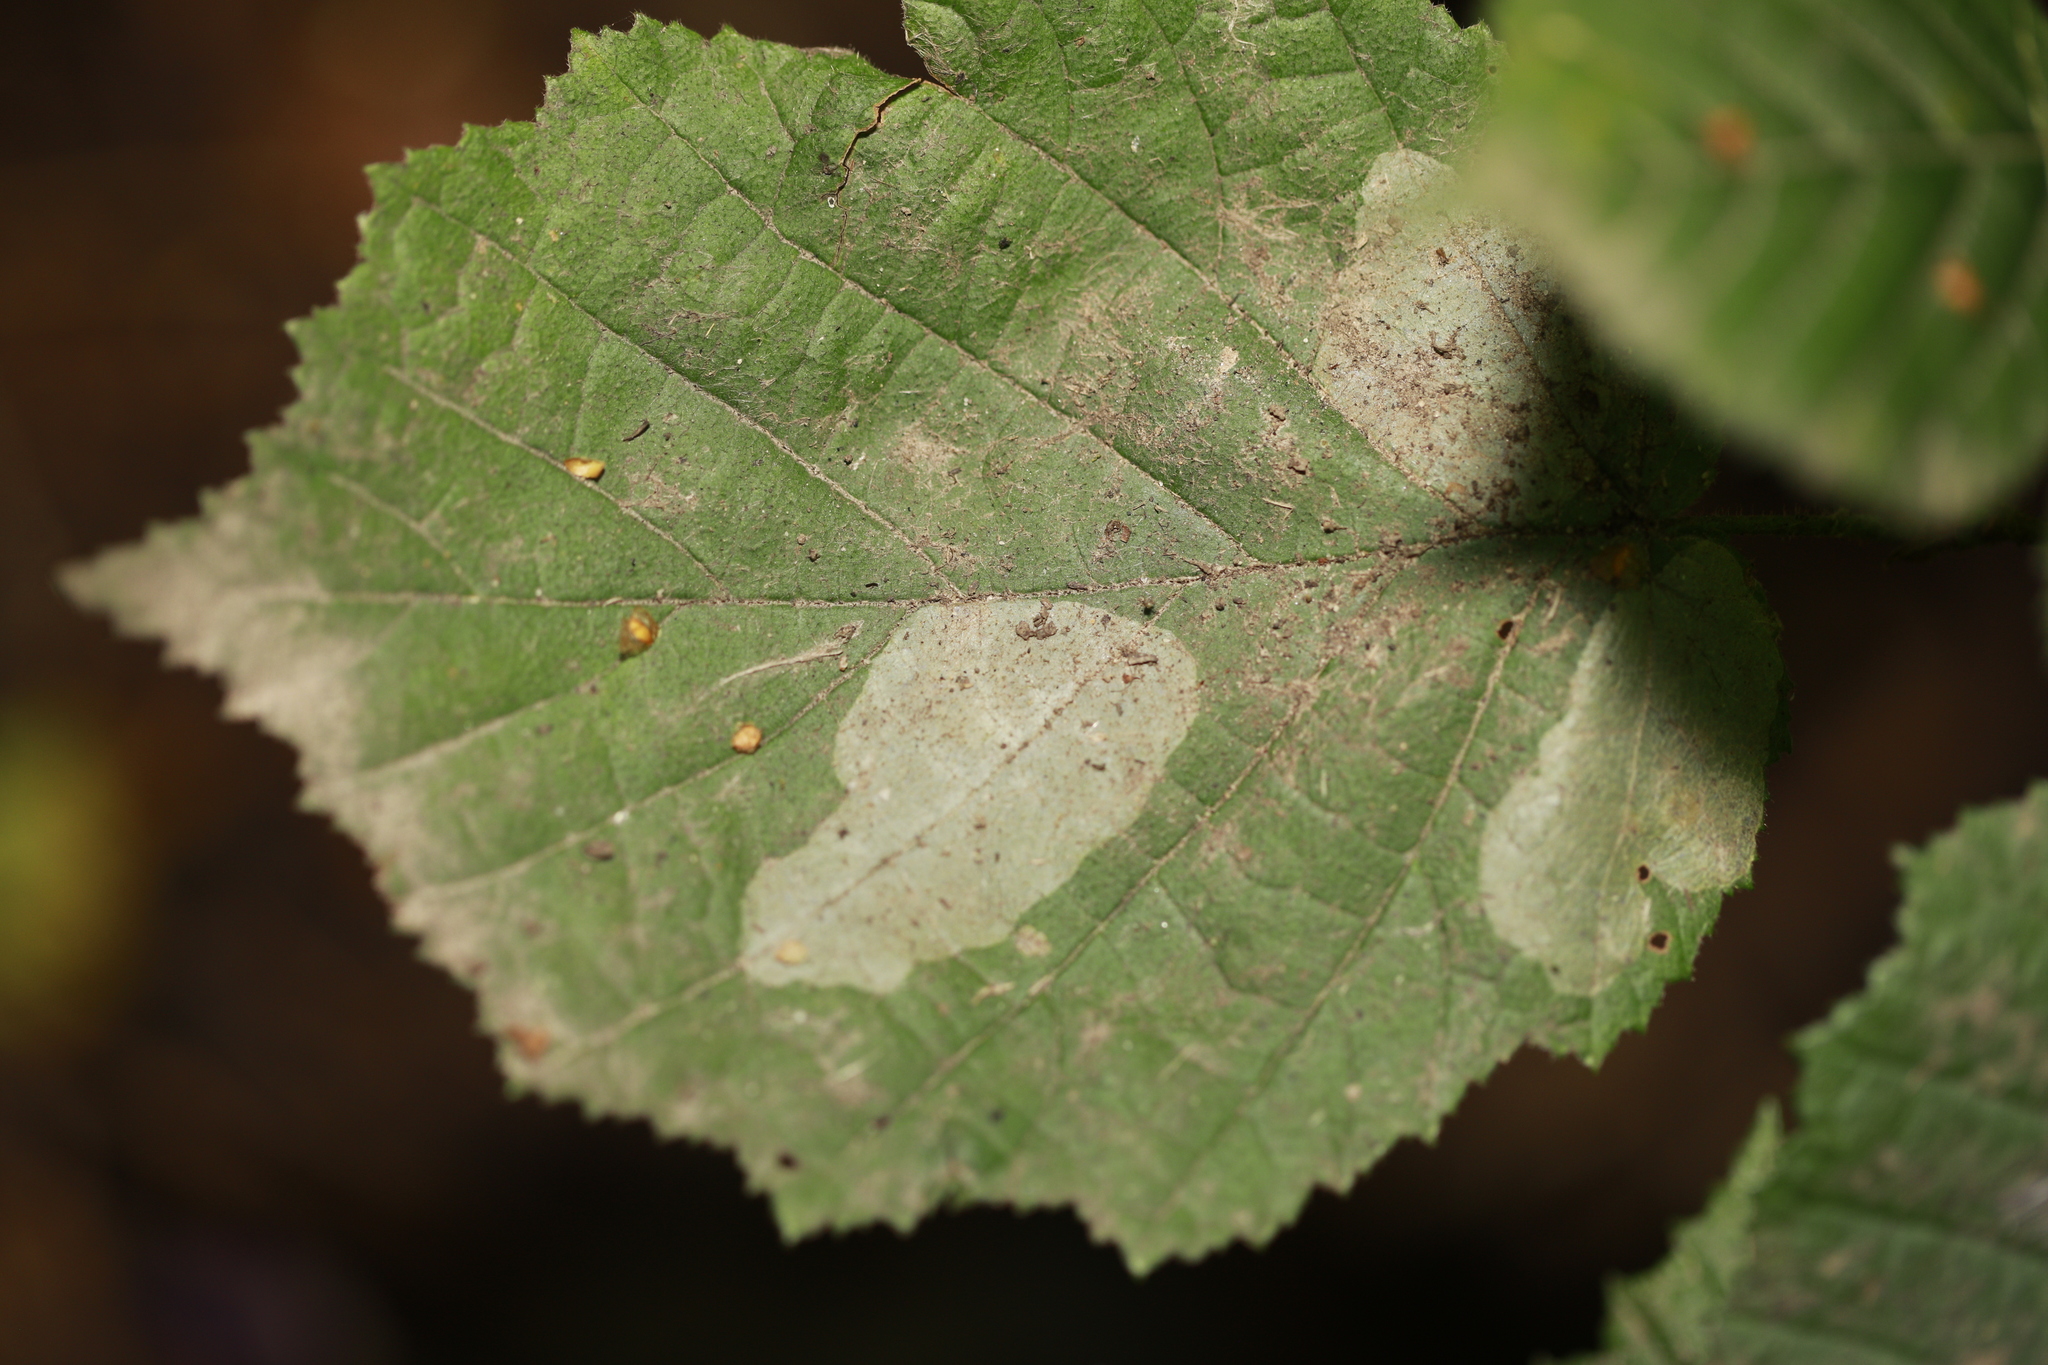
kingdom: Animalia
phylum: Arthropoda
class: Insecta
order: Lepidoptera
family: Gracillariidae
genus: Phyllonorycter
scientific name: Phyllonorycter coryli
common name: Nut-leaf blister moth
